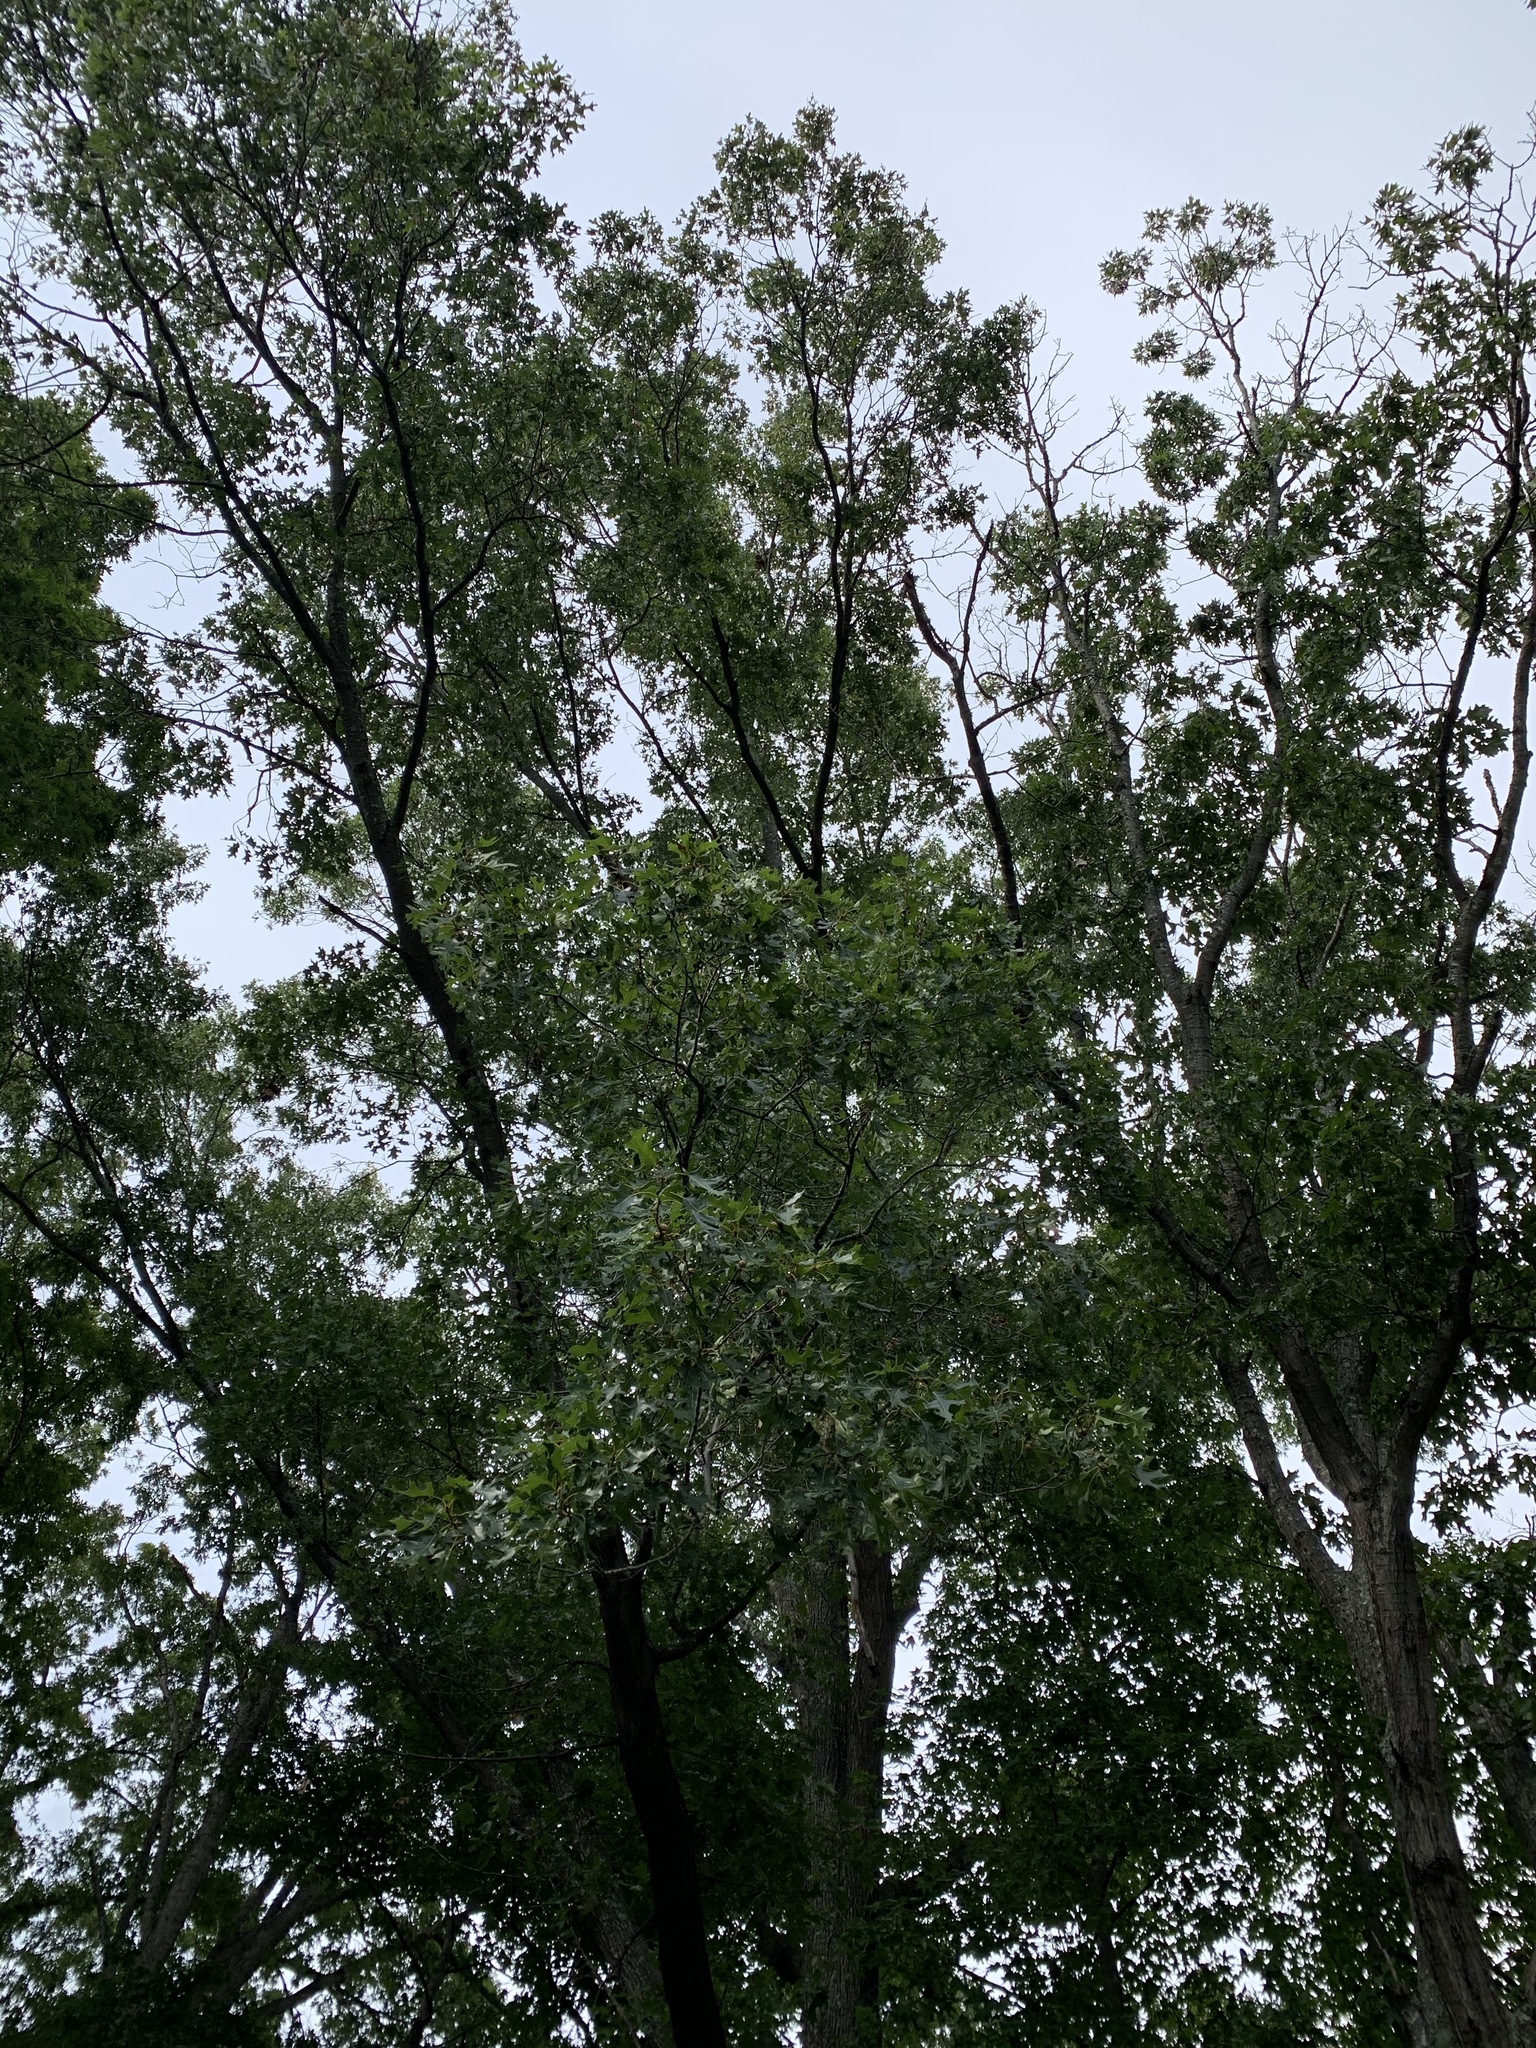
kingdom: Plantae
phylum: Tracheophyta
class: Magnoliopsida
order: Fagales
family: Fagaceae
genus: Quercus
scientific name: Quercus velutina
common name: Black oak
